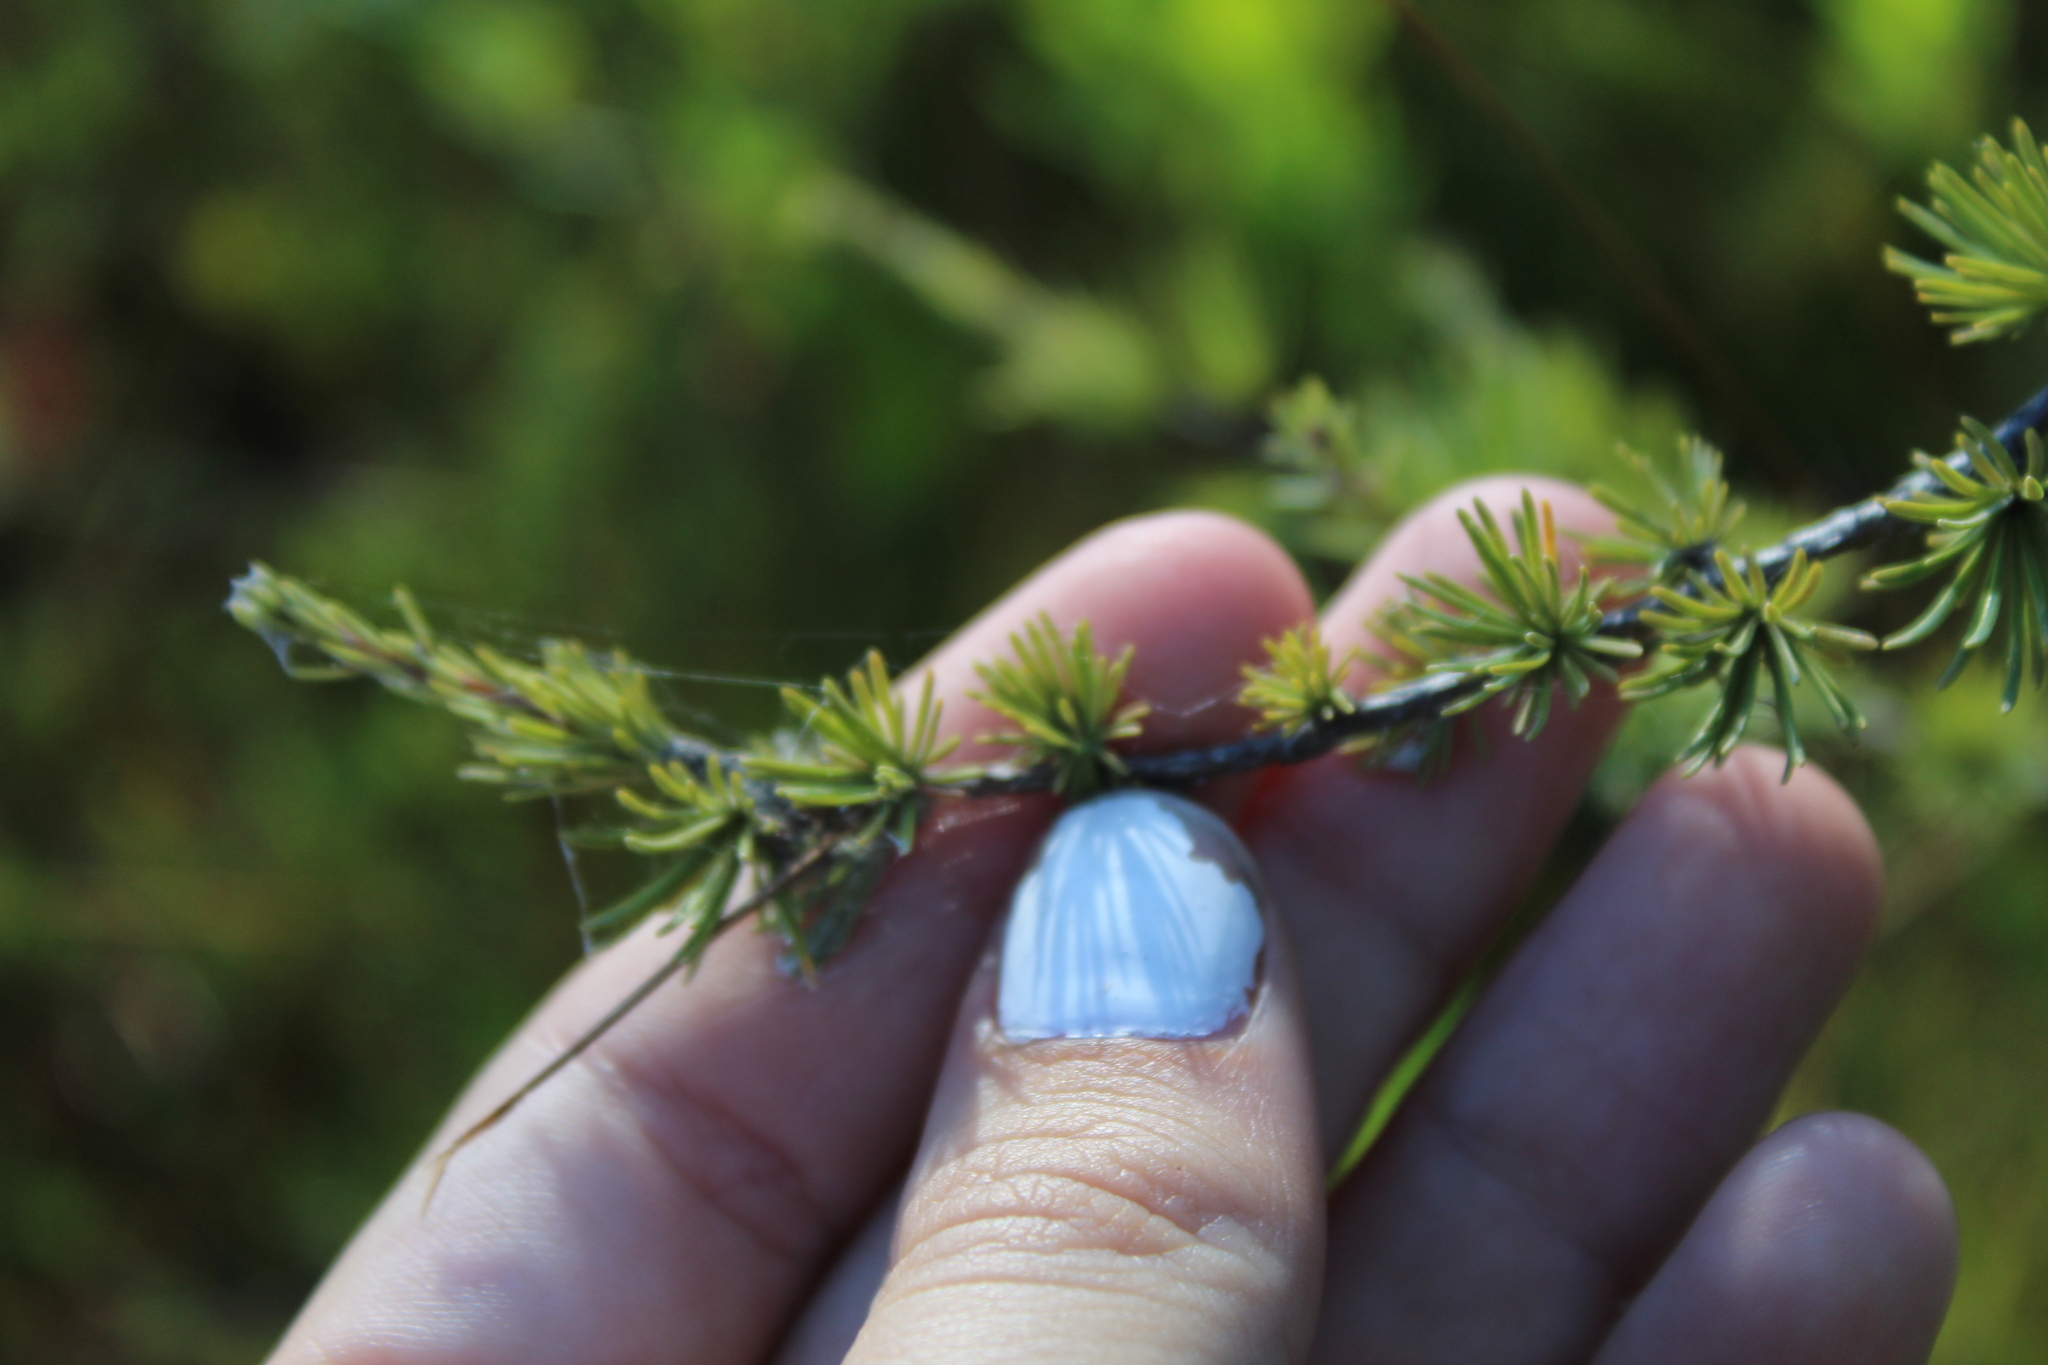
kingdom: Plantae
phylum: Tracheophyta
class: Pinopsida
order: Pinales
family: Pinaceae
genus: Larix
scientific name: Larix laricina
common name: American larch
